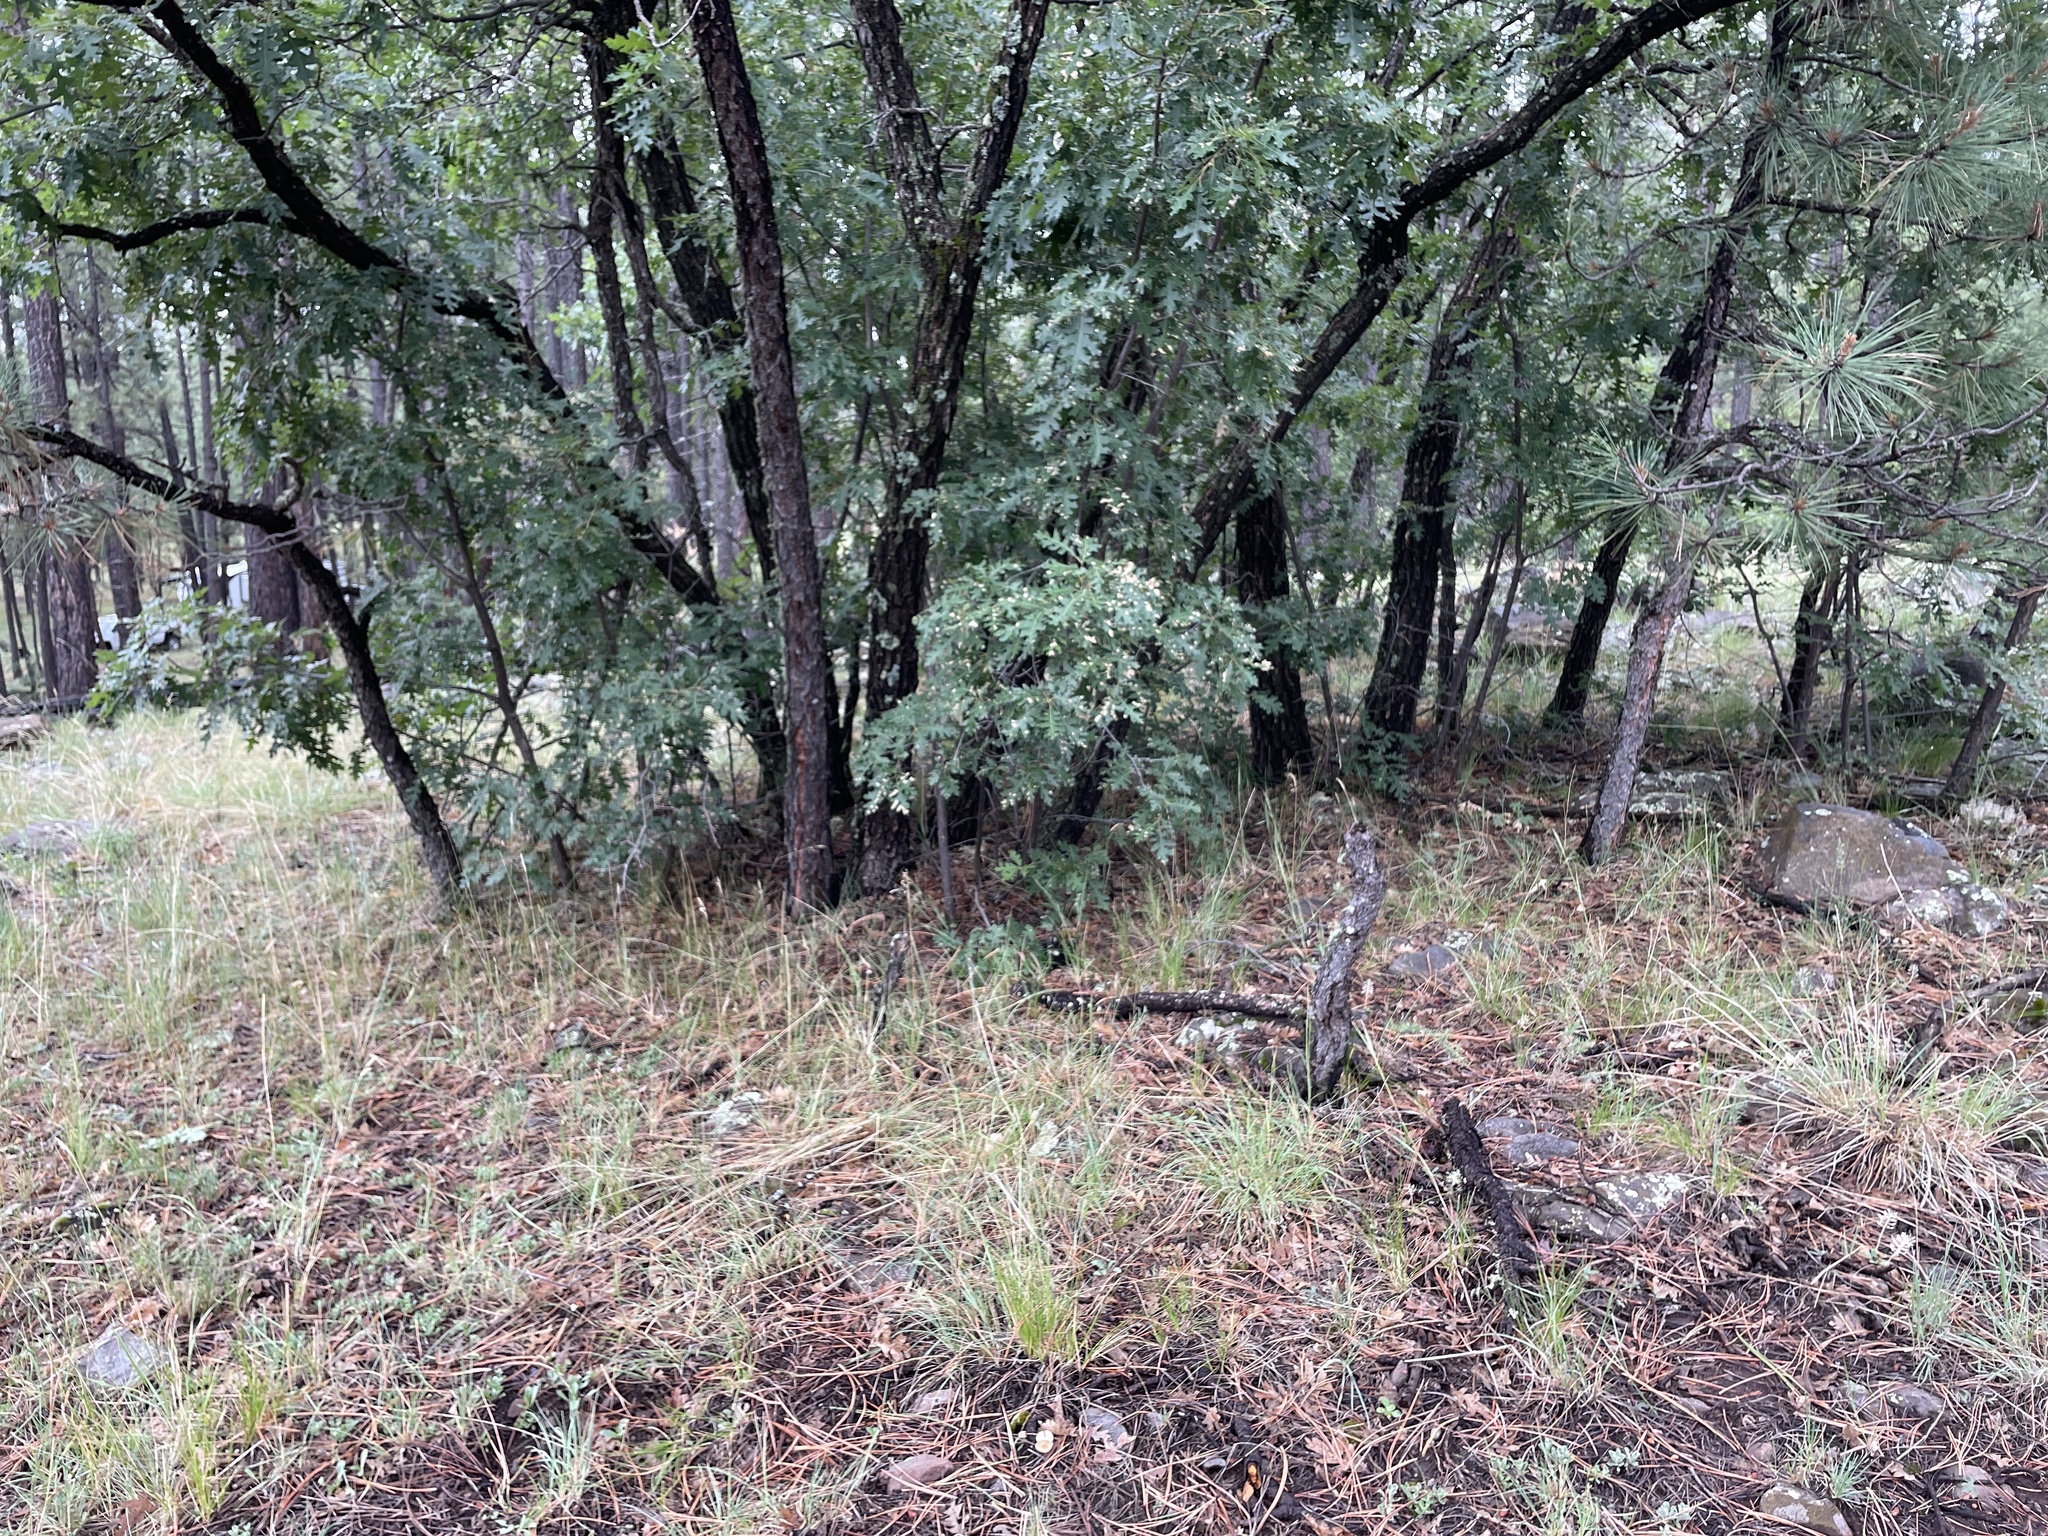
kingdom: Fungi
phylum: Basidiomycota
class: Agaricomycetes
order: Polyporales
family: Polyporaceae
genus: Lentinus
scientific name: Lentinus arcularius
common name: Spring polypore
